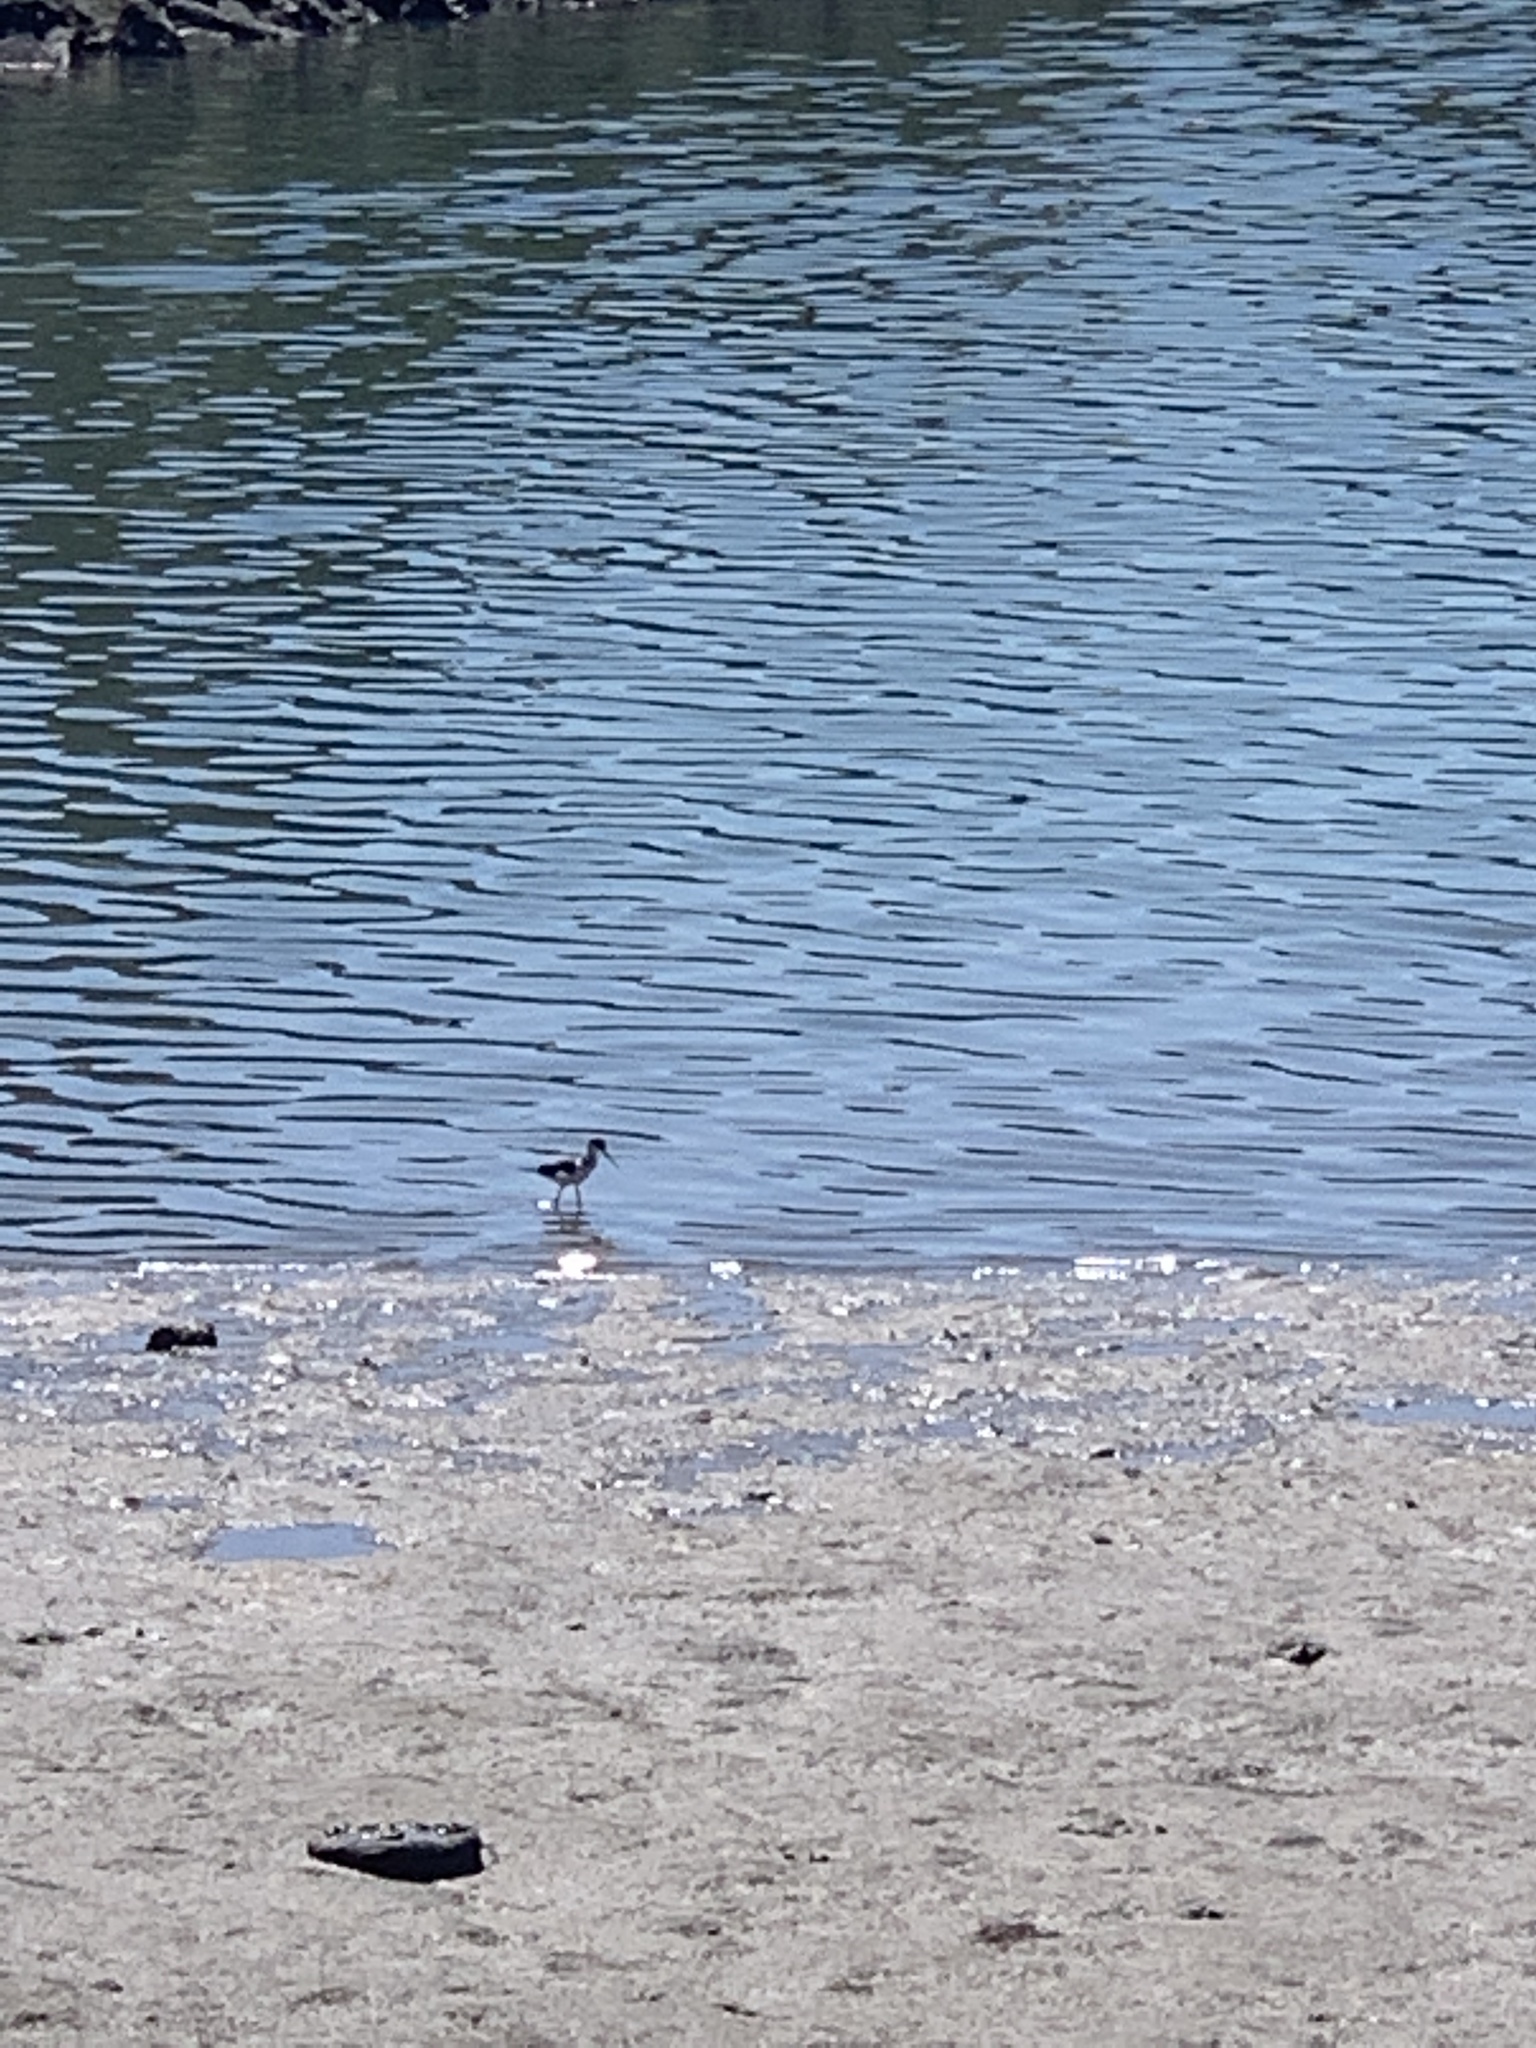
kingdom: Animalia
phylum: Chordata
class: Aves
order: Charadriiformes
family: Recurvirostridae
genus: Himantopus
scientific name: Himantopus mexicanus
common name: Black-necked stilt
